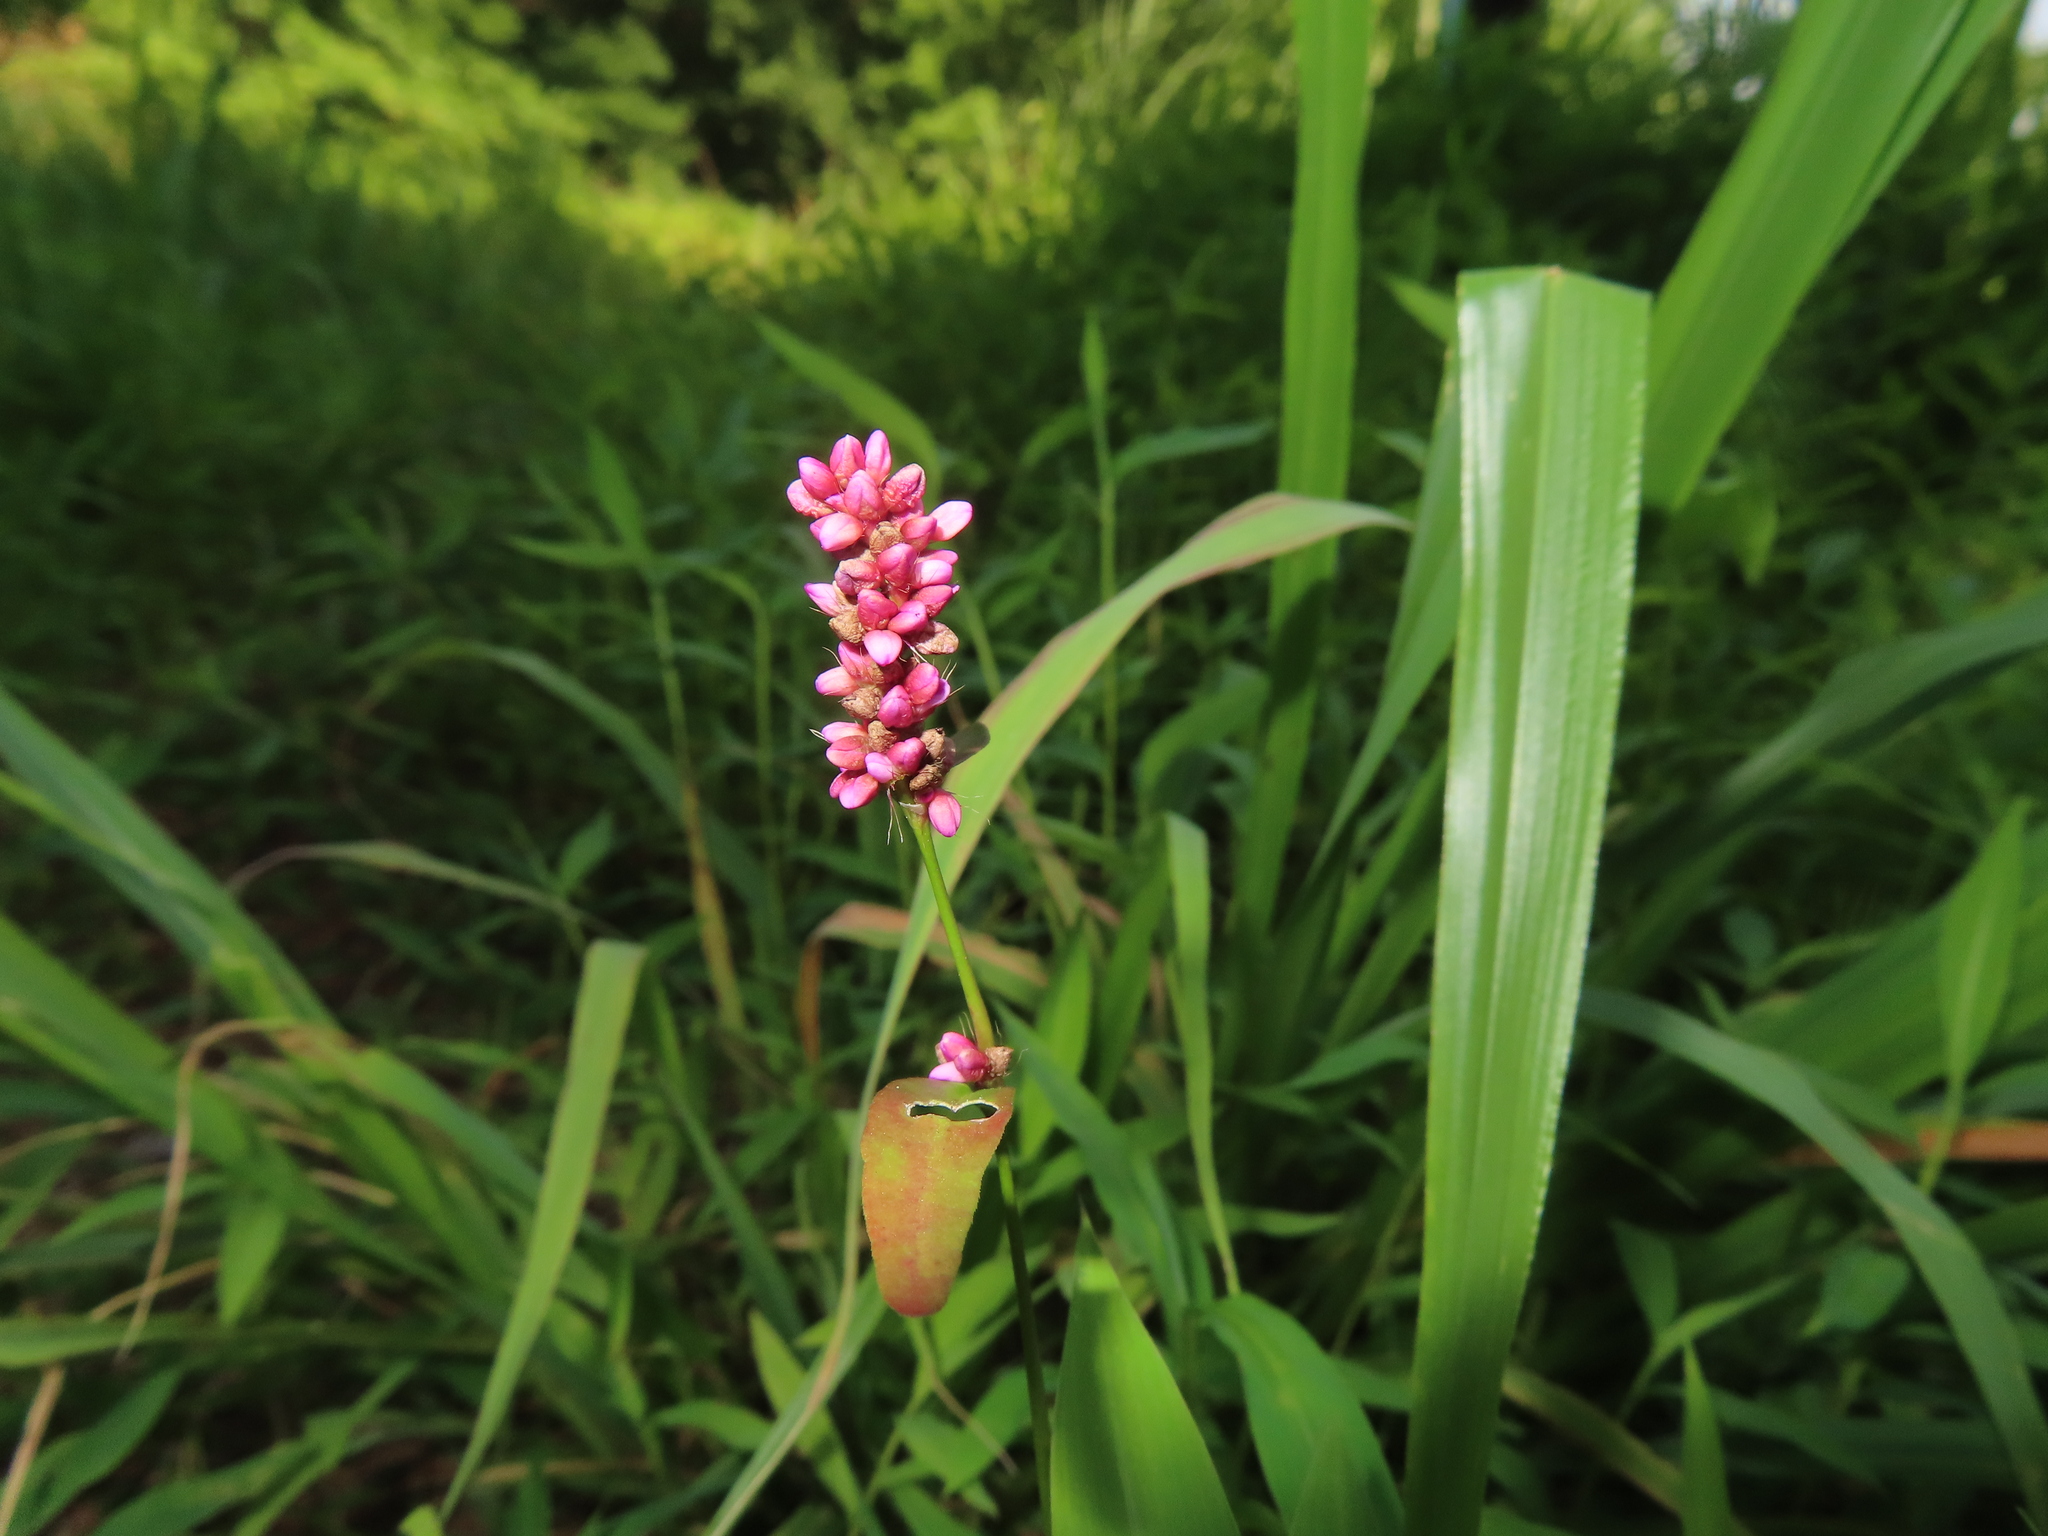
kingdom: Plantae
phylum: Tracheophyta
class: Magnoliopsida
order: Caryophyllales
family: Polygonaceae
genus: Persicaria
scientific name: Persicaria longiseta
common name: Bristly lady's-thumb
